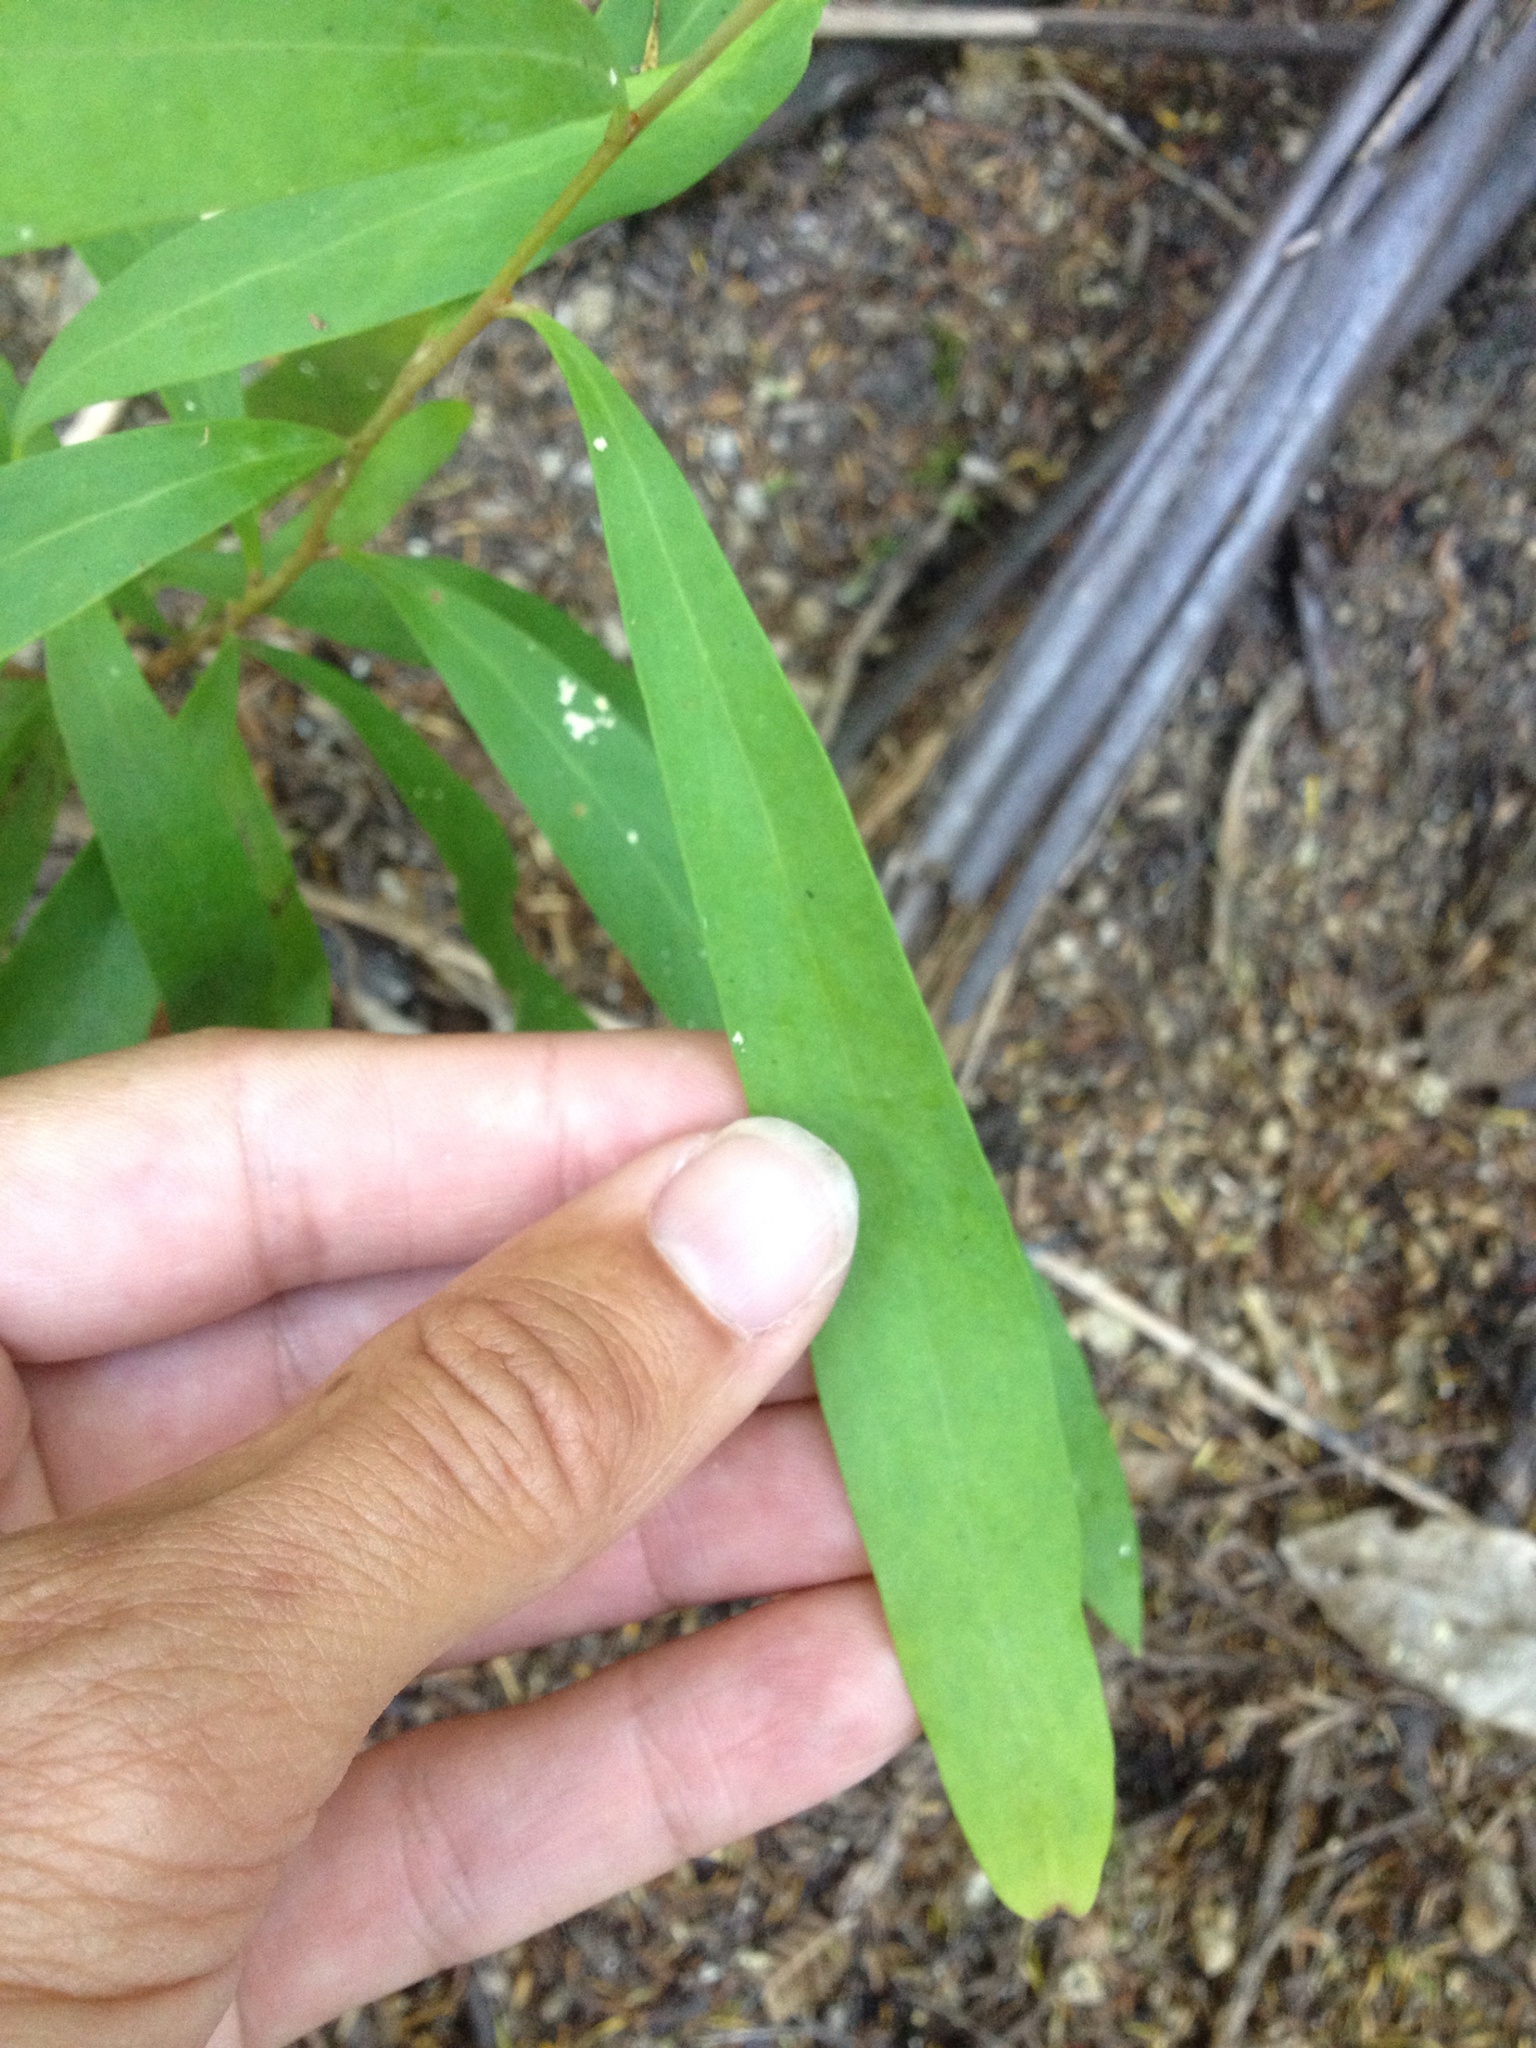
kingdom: Plantae
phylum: Tracheophyta
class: Magnoliopsida
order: Proteales
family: Proteaceae
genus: Hakea
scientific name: Hakea salicifolia
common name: Willow hakea
